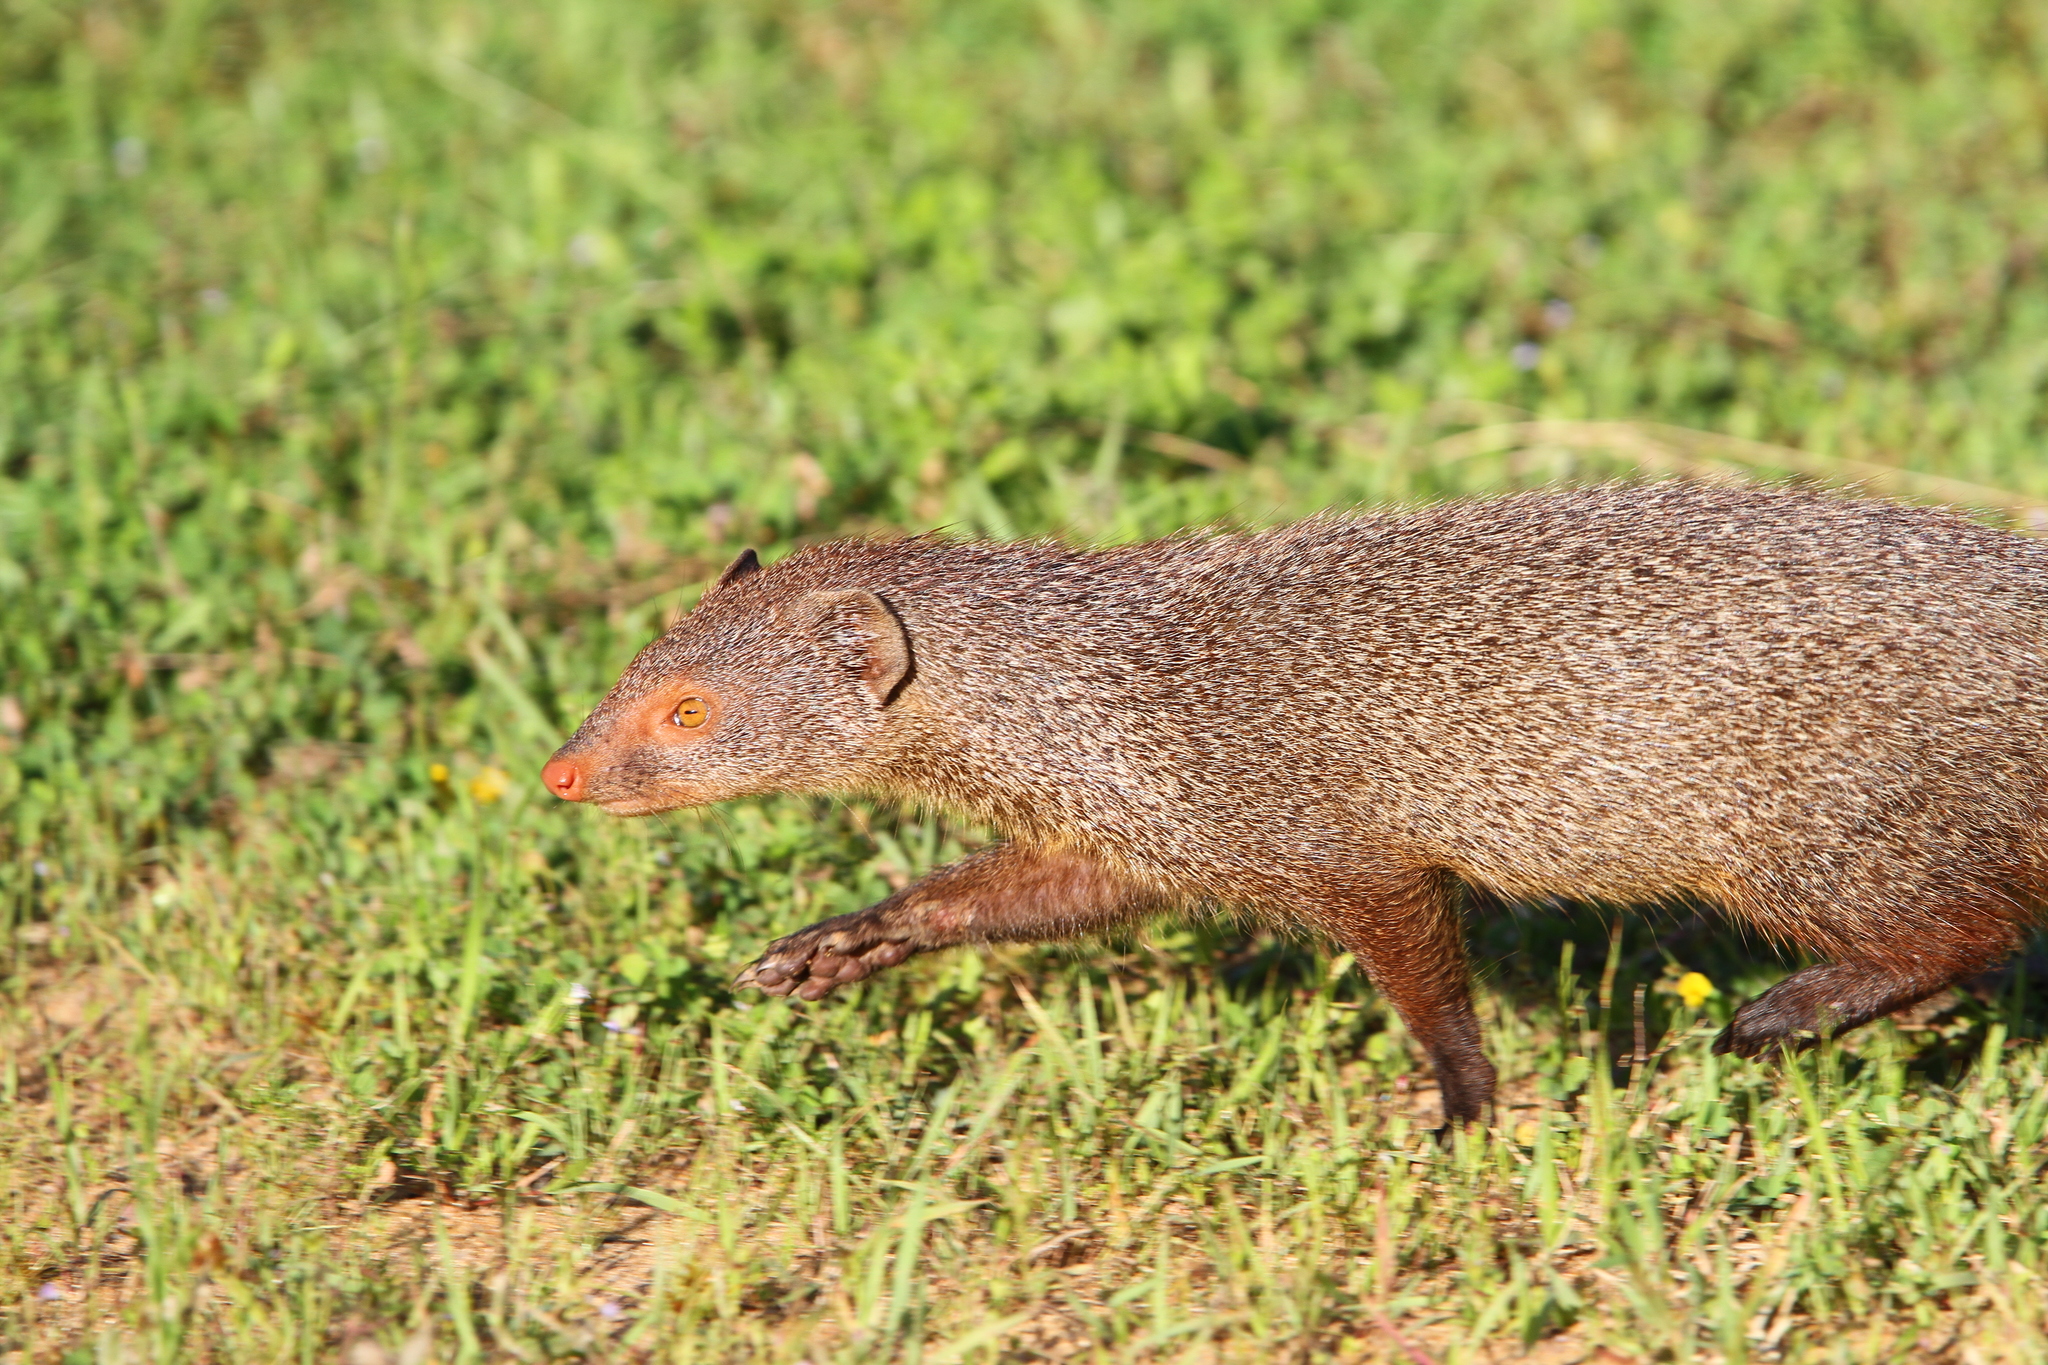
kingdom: Animalia
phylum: Chordata
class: Mammalia
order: Carnivora
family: Herpestidae
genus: Herpestes
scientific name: Herpestes smithii
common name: Ruddy mongoose
